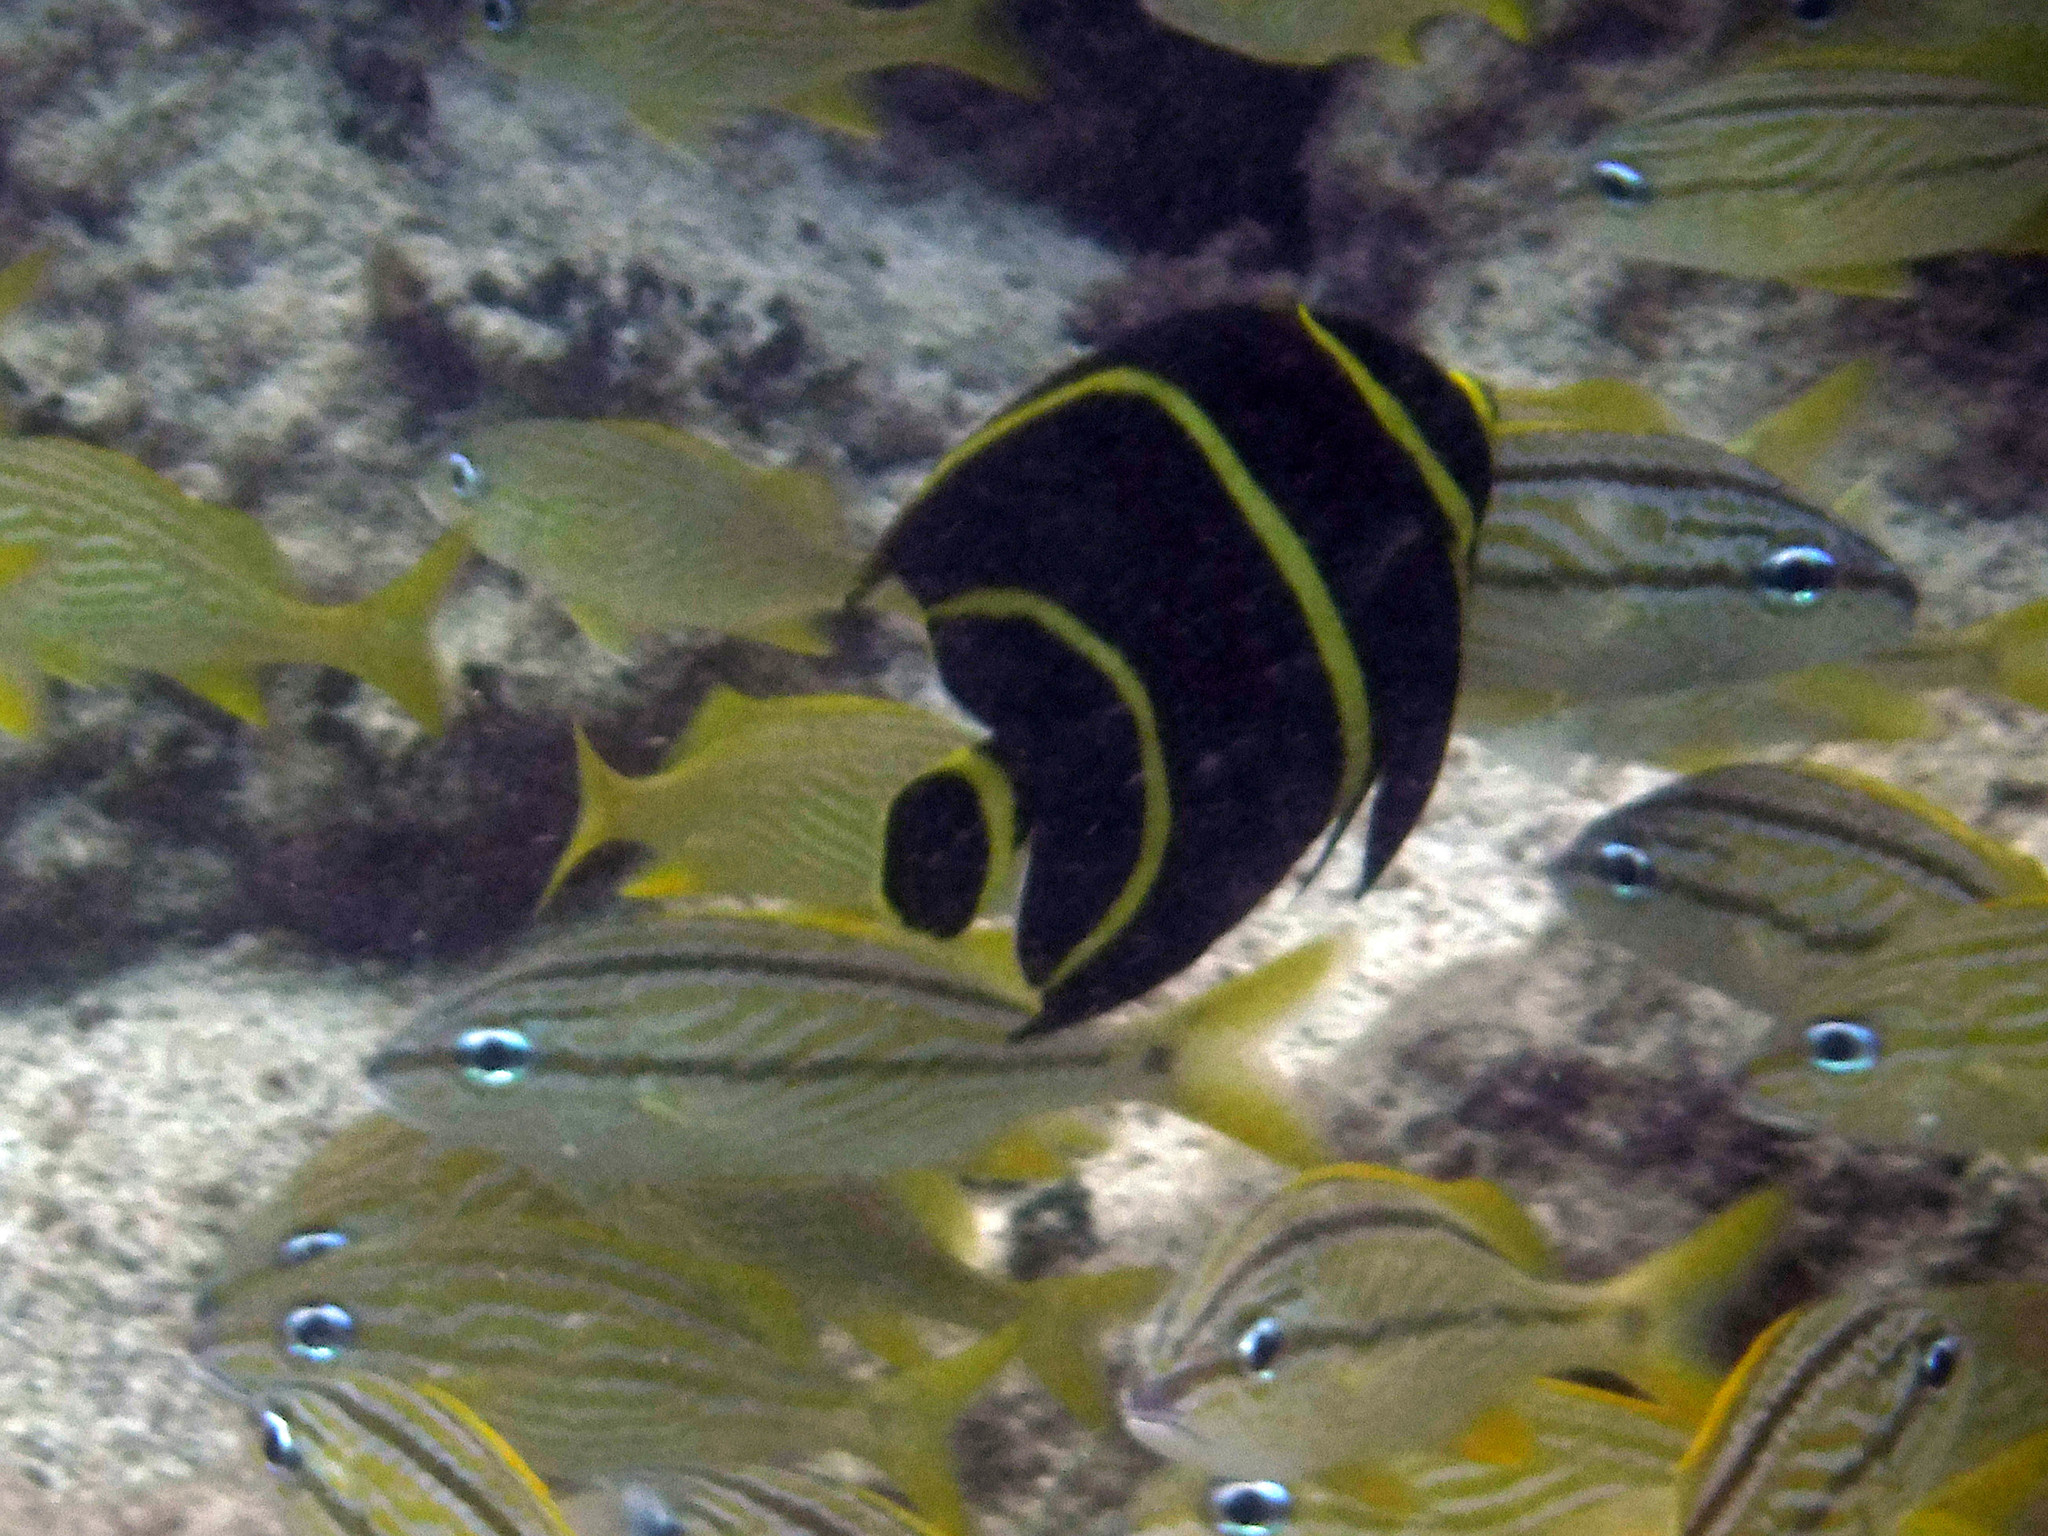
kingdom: Animalia
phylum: Chordata
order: Perciformes
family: Pomacanthidae
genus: Pomacanthus
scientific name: Pomacanthus paru
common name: French angelfish
